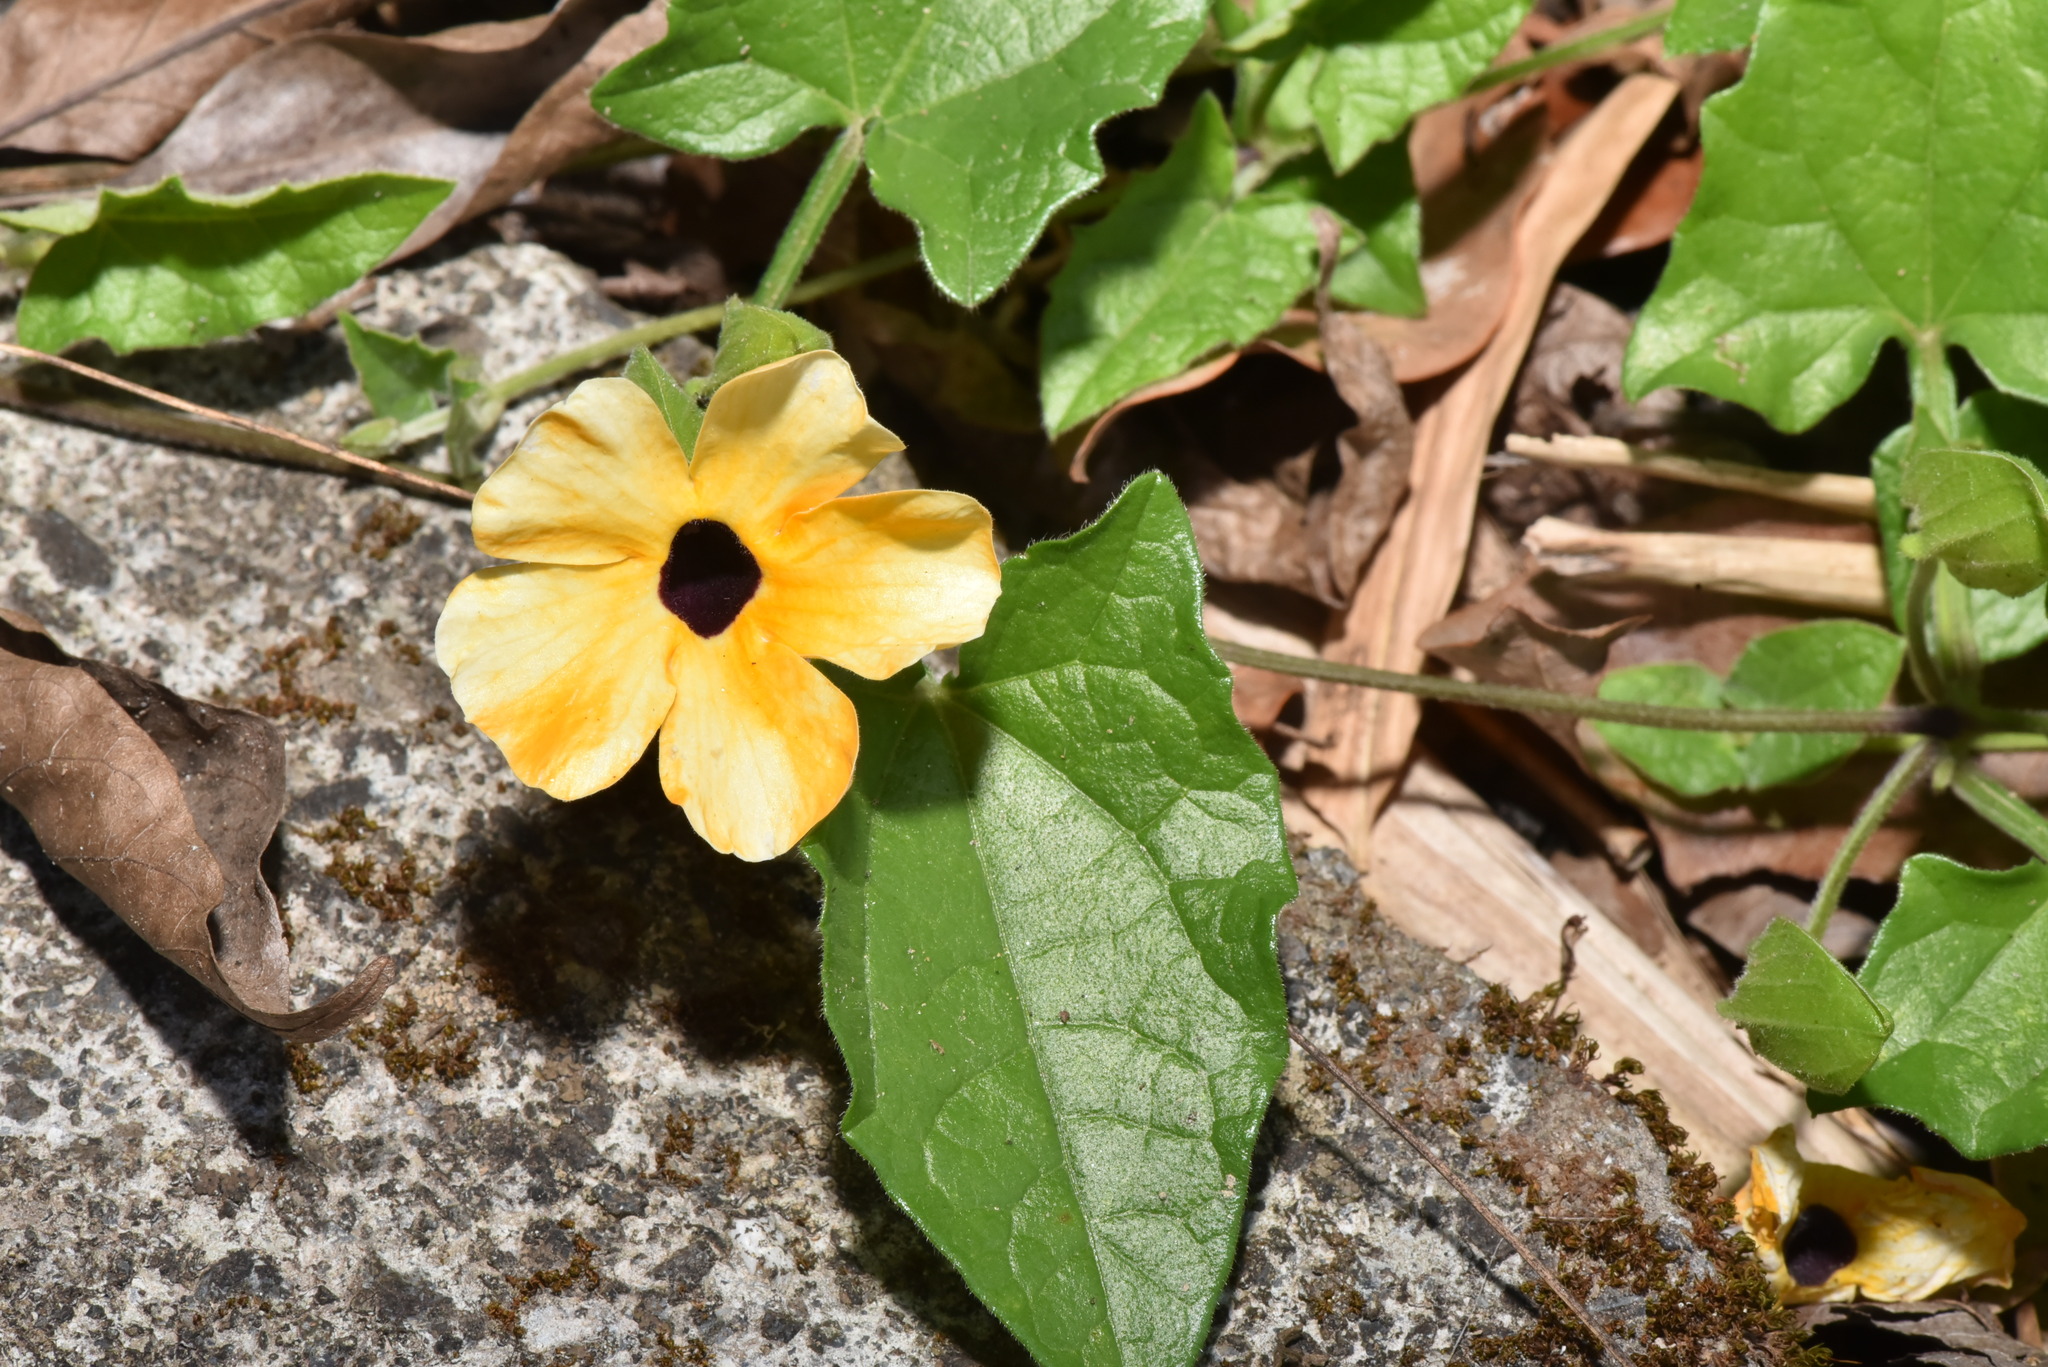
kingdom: Plantae
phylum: Tracheophyta
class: Magnoliopsida
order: Lamiales
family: Acanthaceae
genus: Thunbergia
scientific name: Thunbergia alata
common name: Blackeyed susan vine
